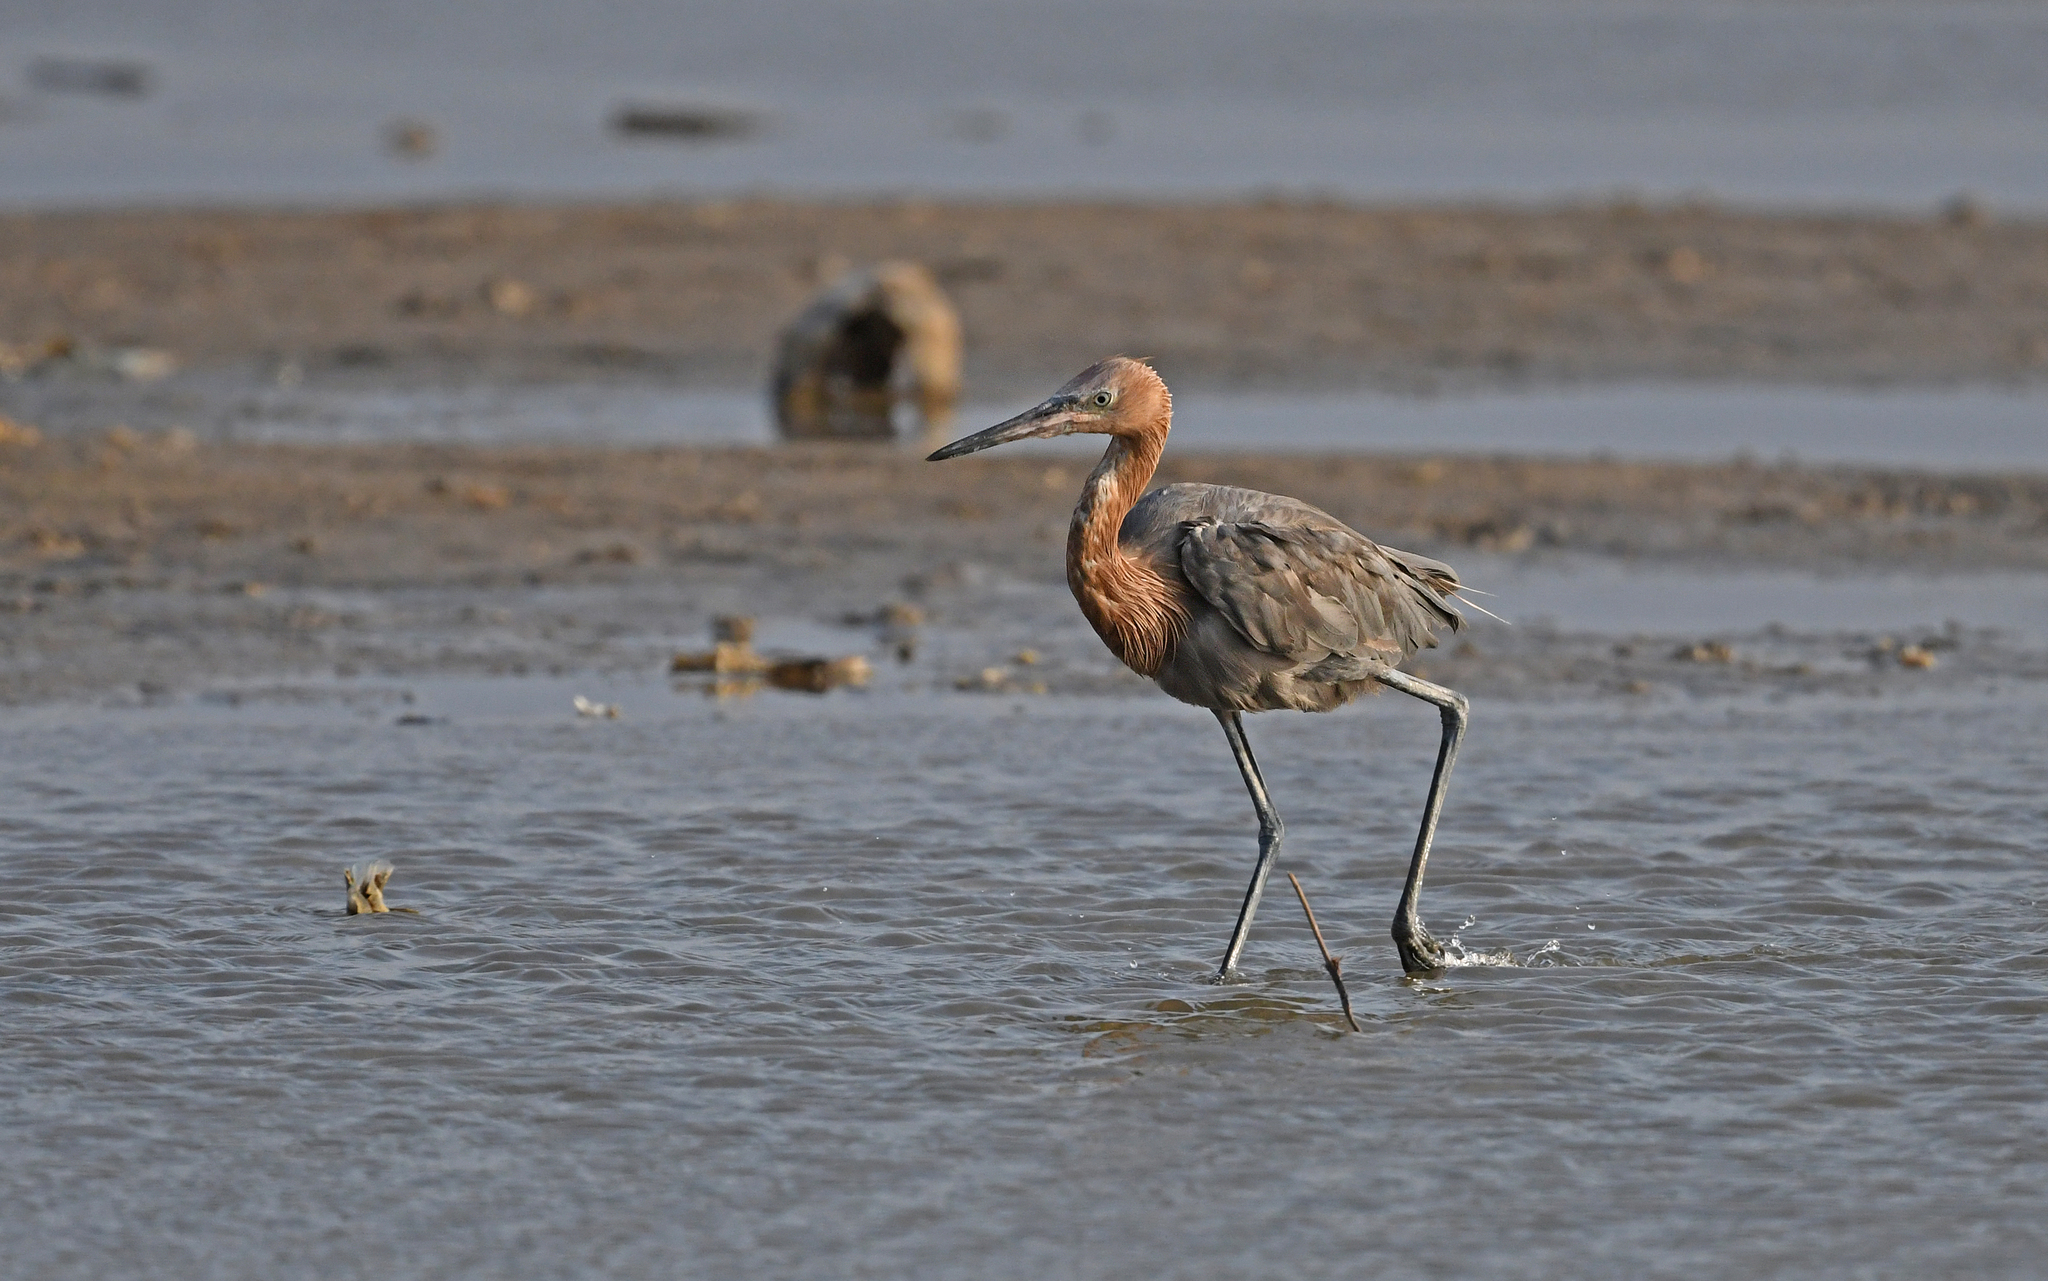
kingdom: Animalia
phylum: Chordata
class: Aves
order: Pelecaniformes
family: Ardeidae
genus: Egretta
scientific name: Egretta rufescens
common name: Reddish egret
